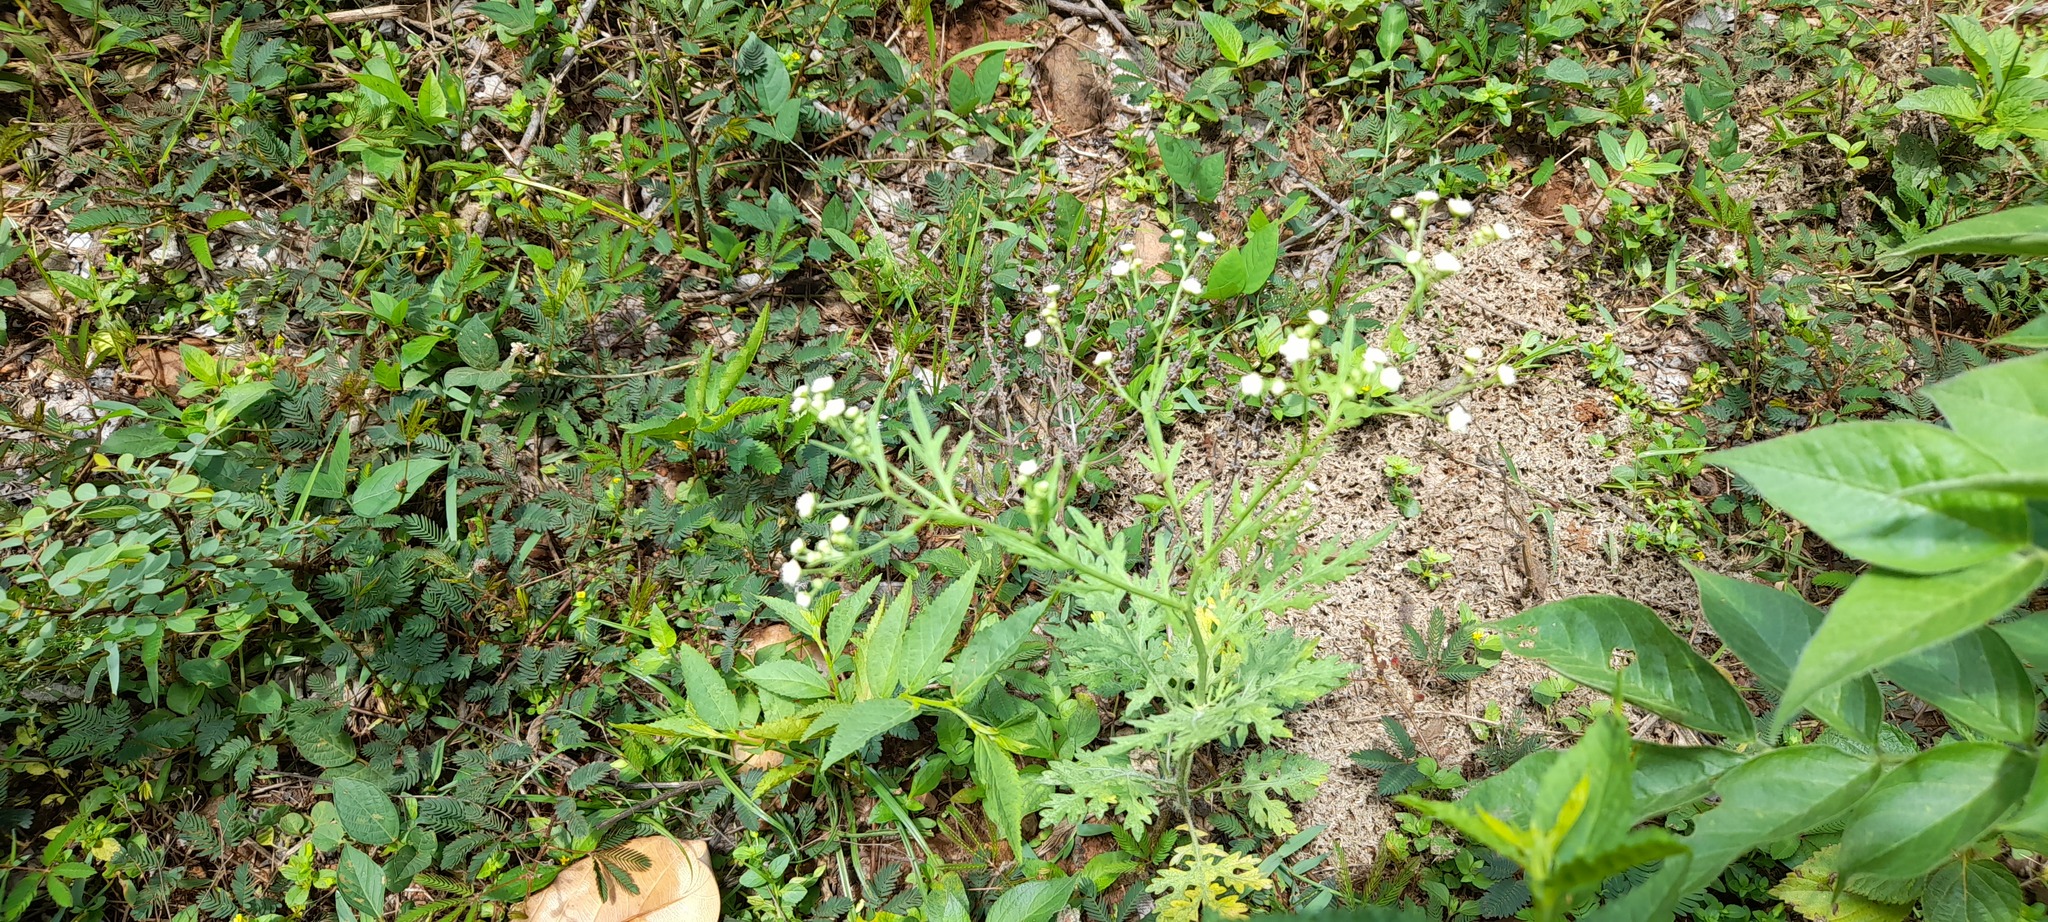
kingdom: Plantae
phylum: Tracheophyta
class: Magnoliopsida
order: Asterales
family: Asteraceae
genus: Parthenium
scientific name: Parthenium hysterophorus
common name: Santa maria feverfew
